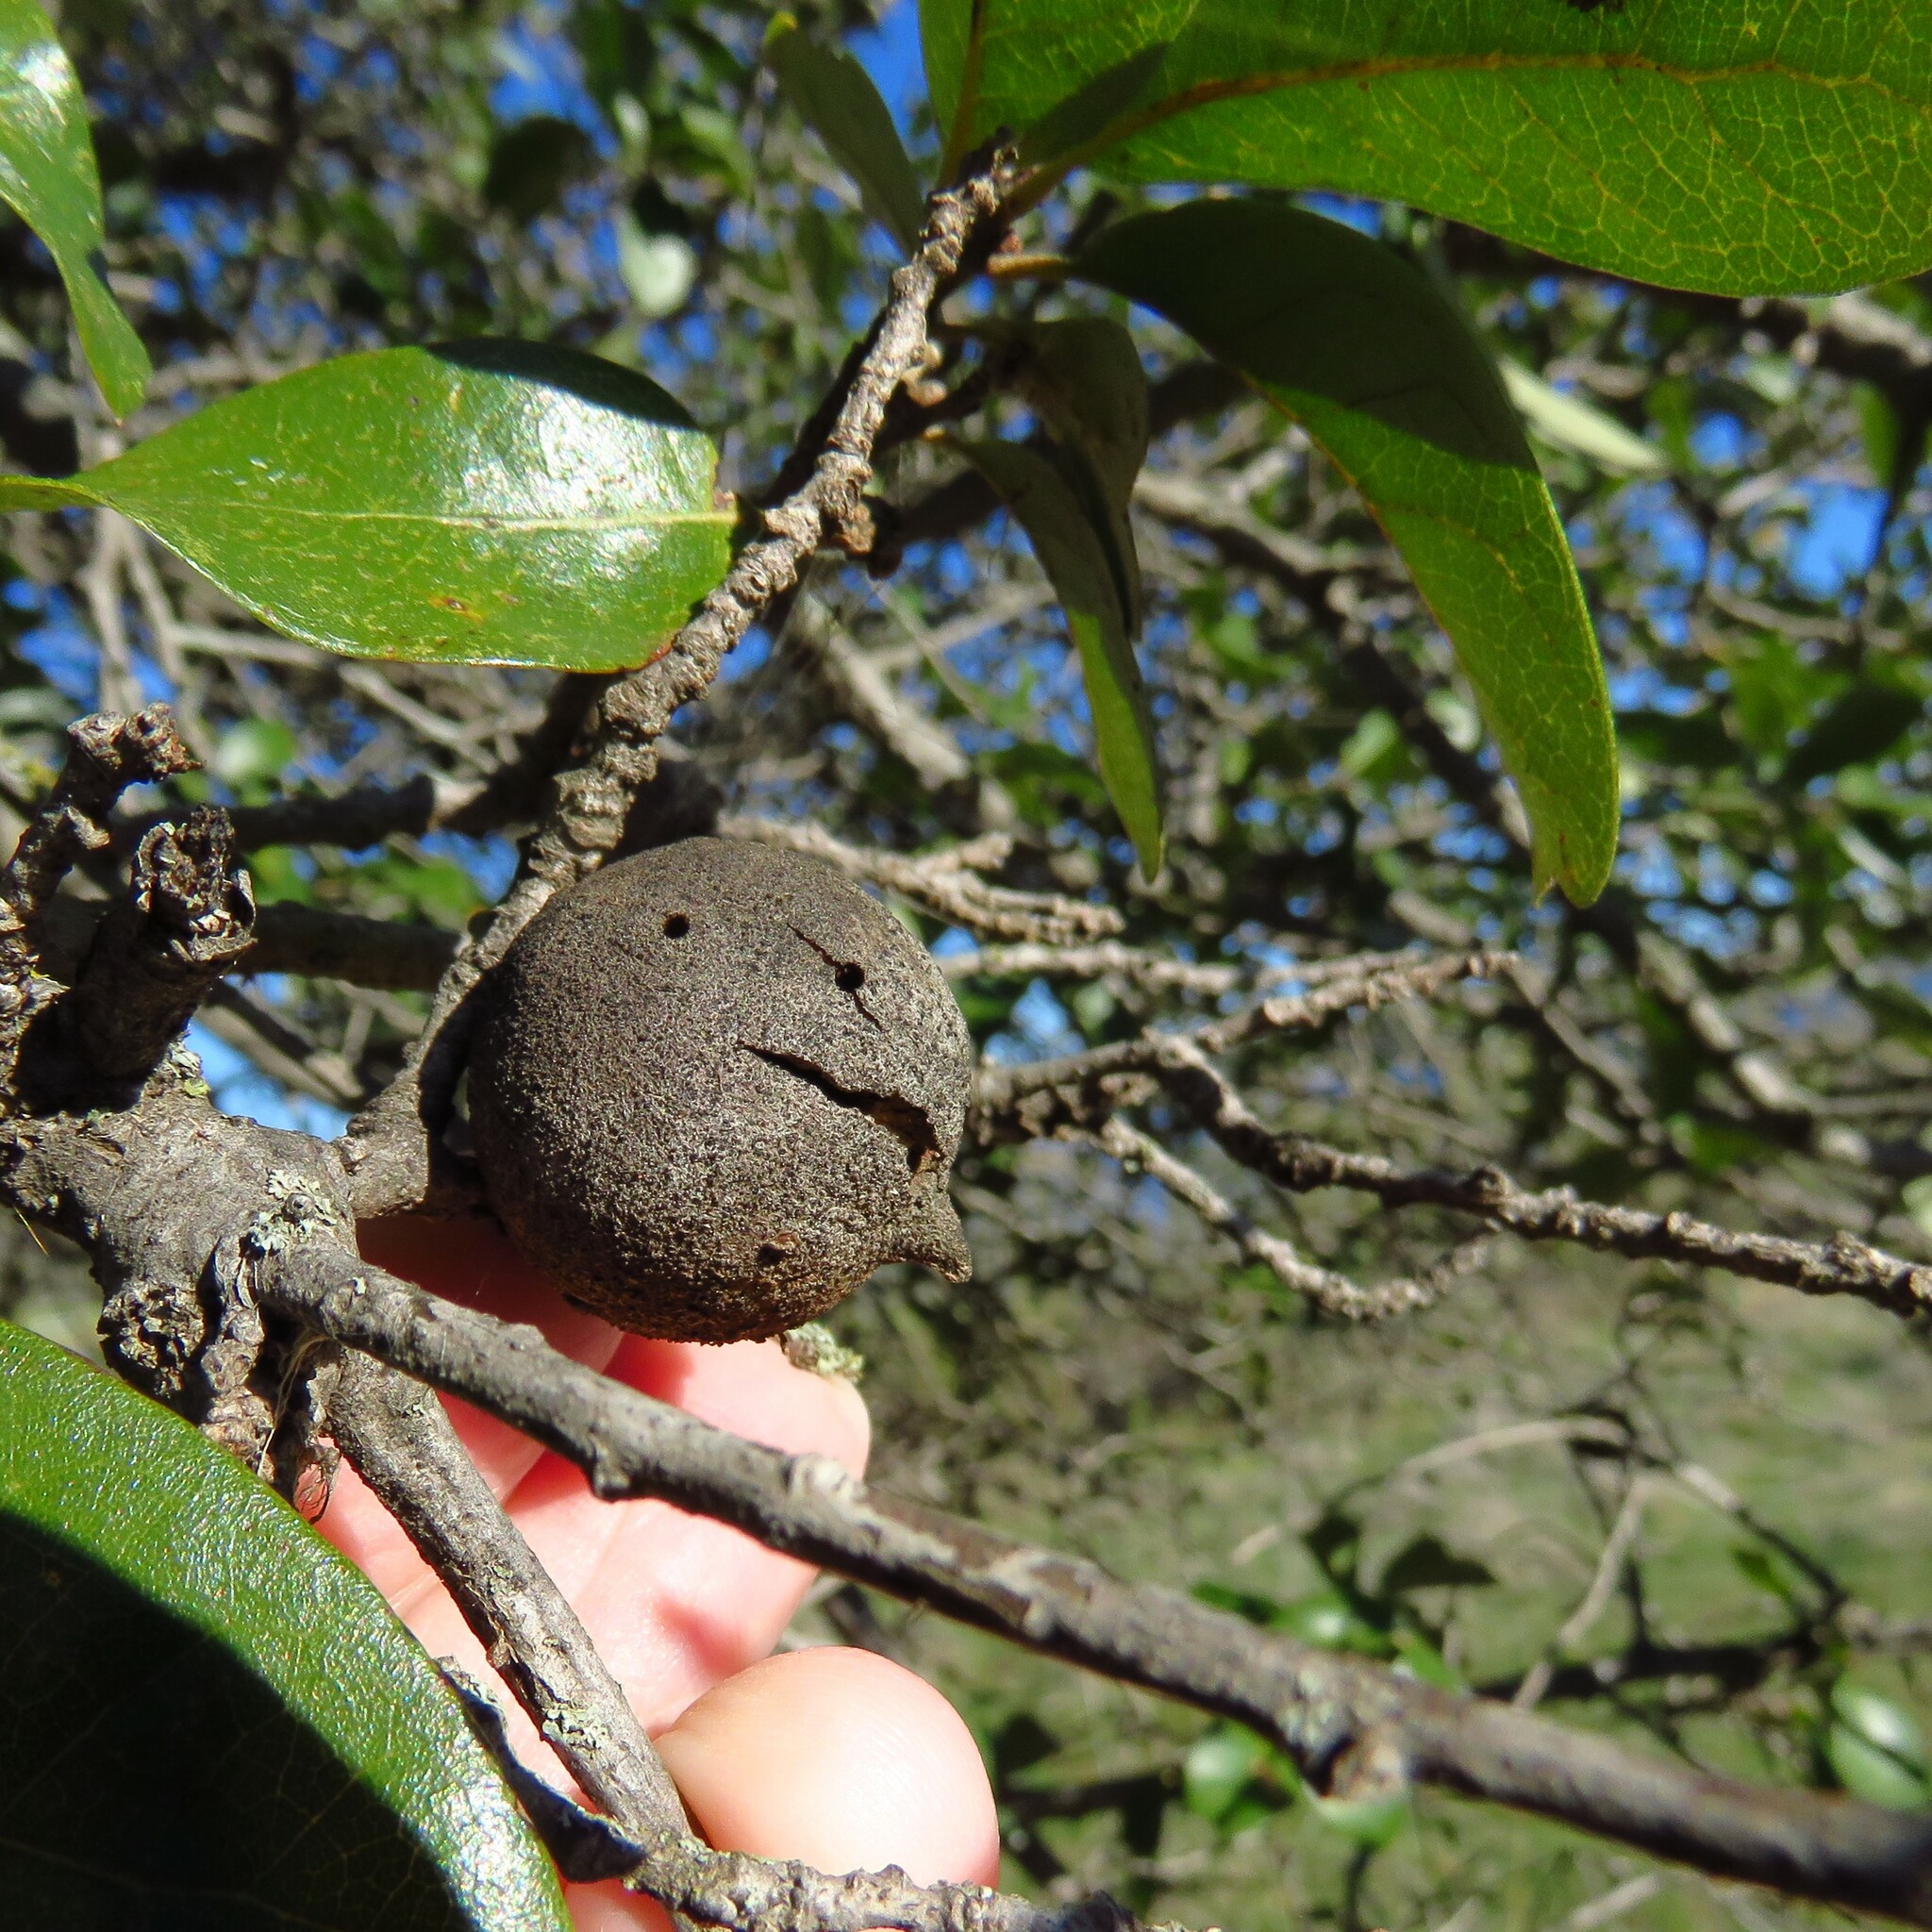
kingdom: Animalia
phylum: Arthropoda
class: Insecta
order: Hymenoptera
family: Cynipidae
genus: Disholcaspis
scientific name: Disholcaspis
